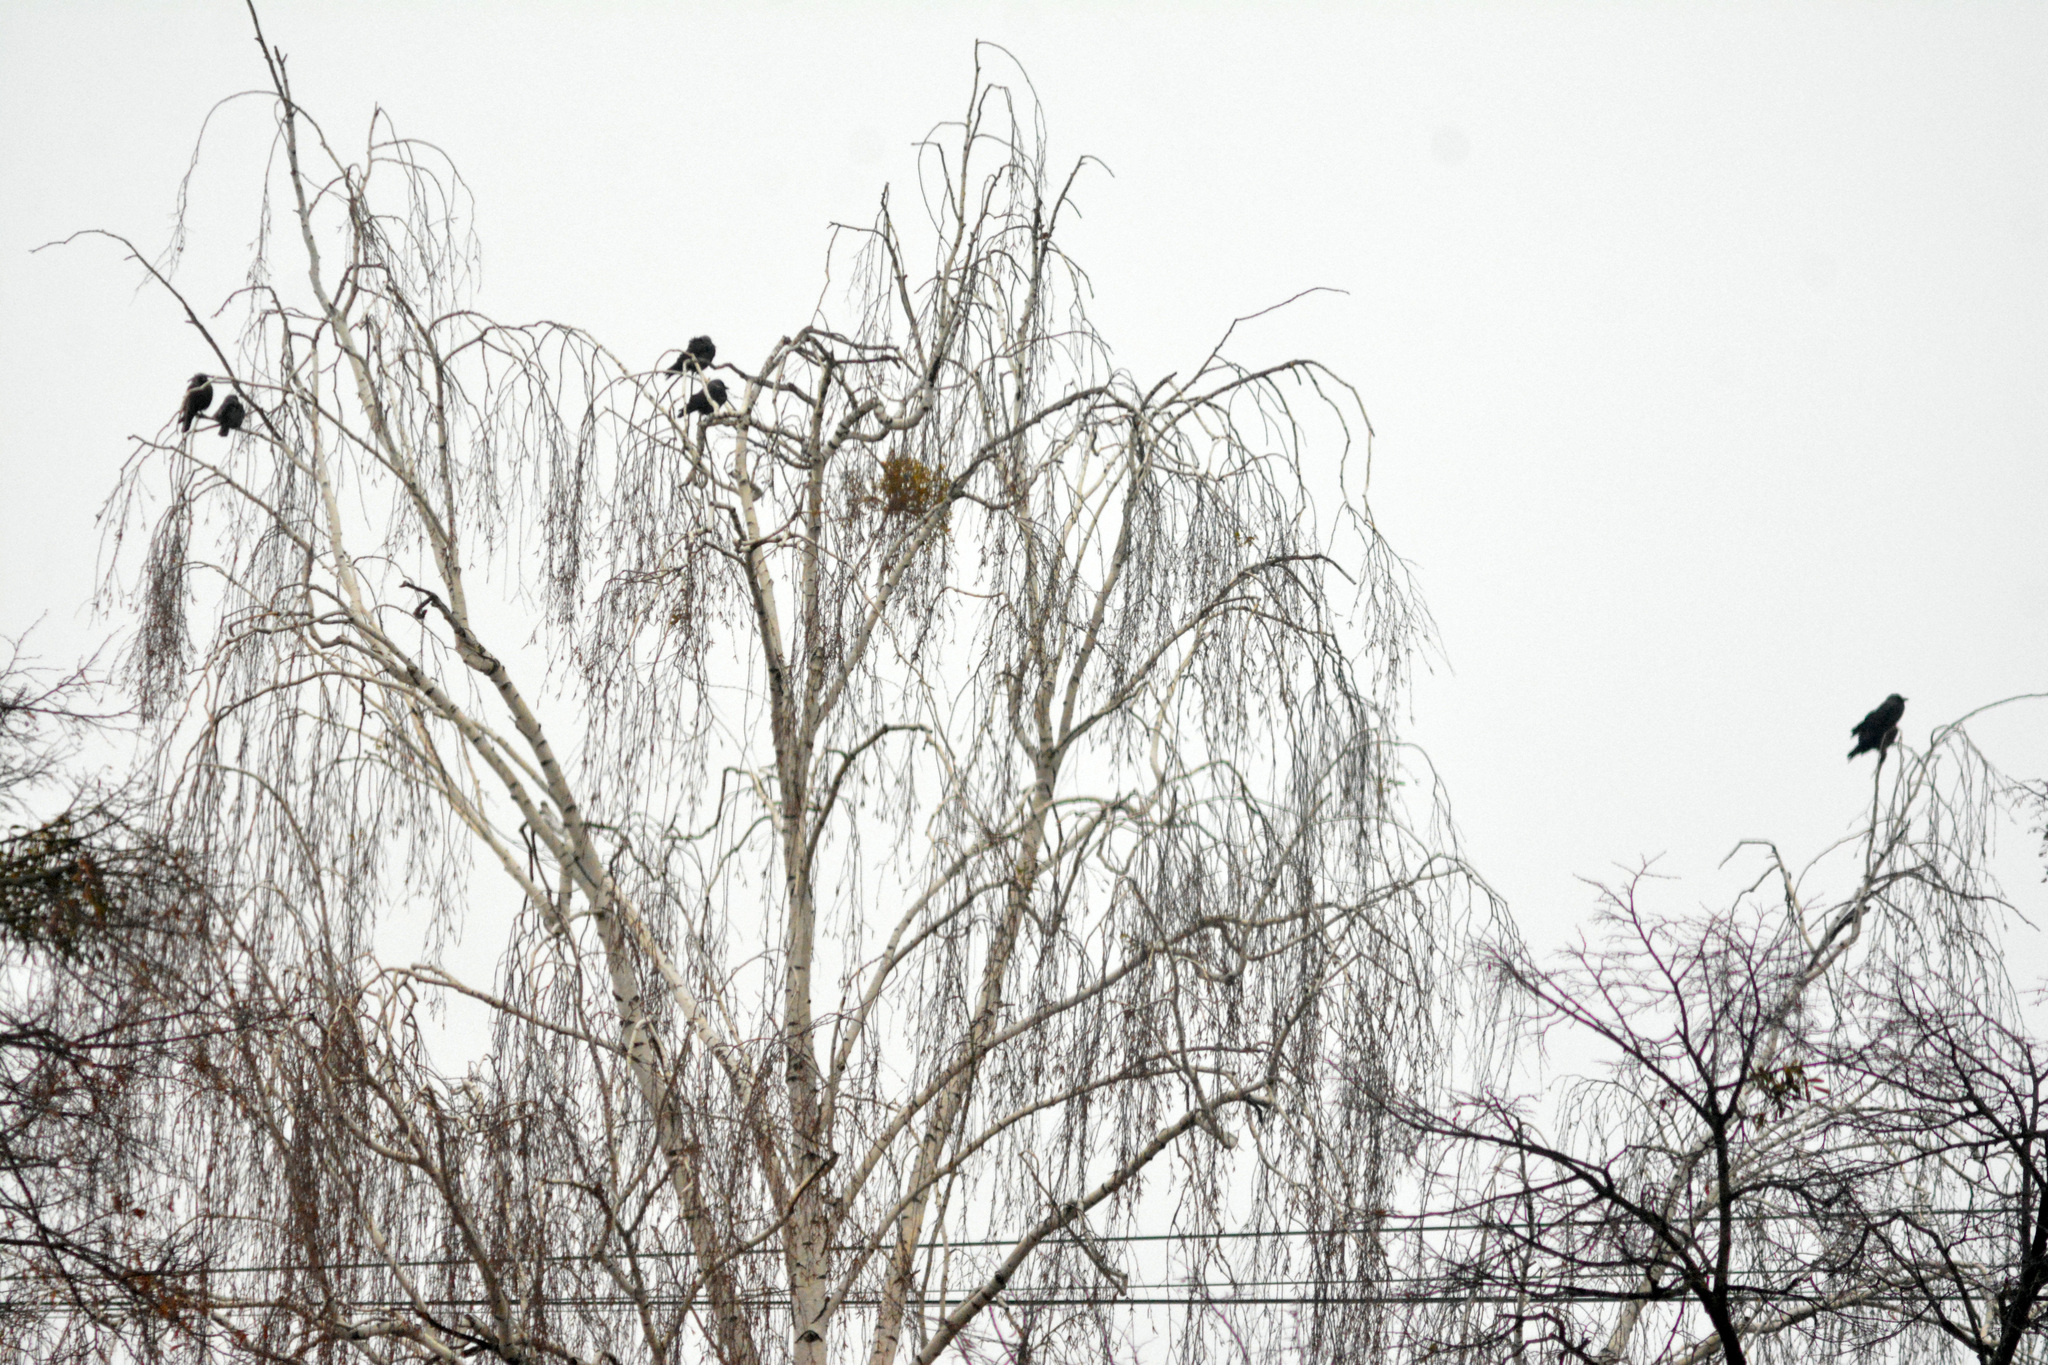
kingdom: Animalia
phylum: Chordata
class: Aves
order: Passeriformes
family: Corvidae
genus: Coloeus
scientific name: Coloeus monedula
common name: Western jackdaw
